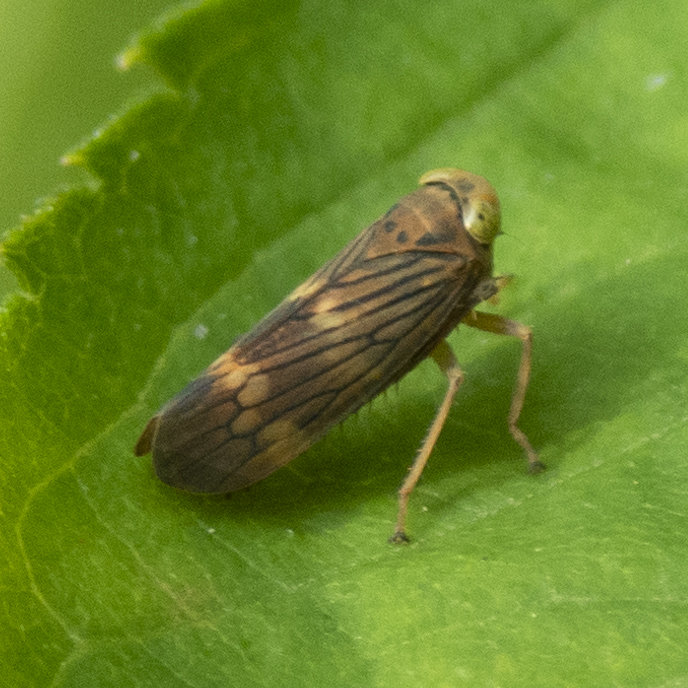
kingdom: Animalia
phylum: Arthropoda
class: Insecta
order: Hemiptera
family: Cicadellidae
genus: Jikradia
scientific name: Jikradia olitoria
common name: Coppery leafhopper
